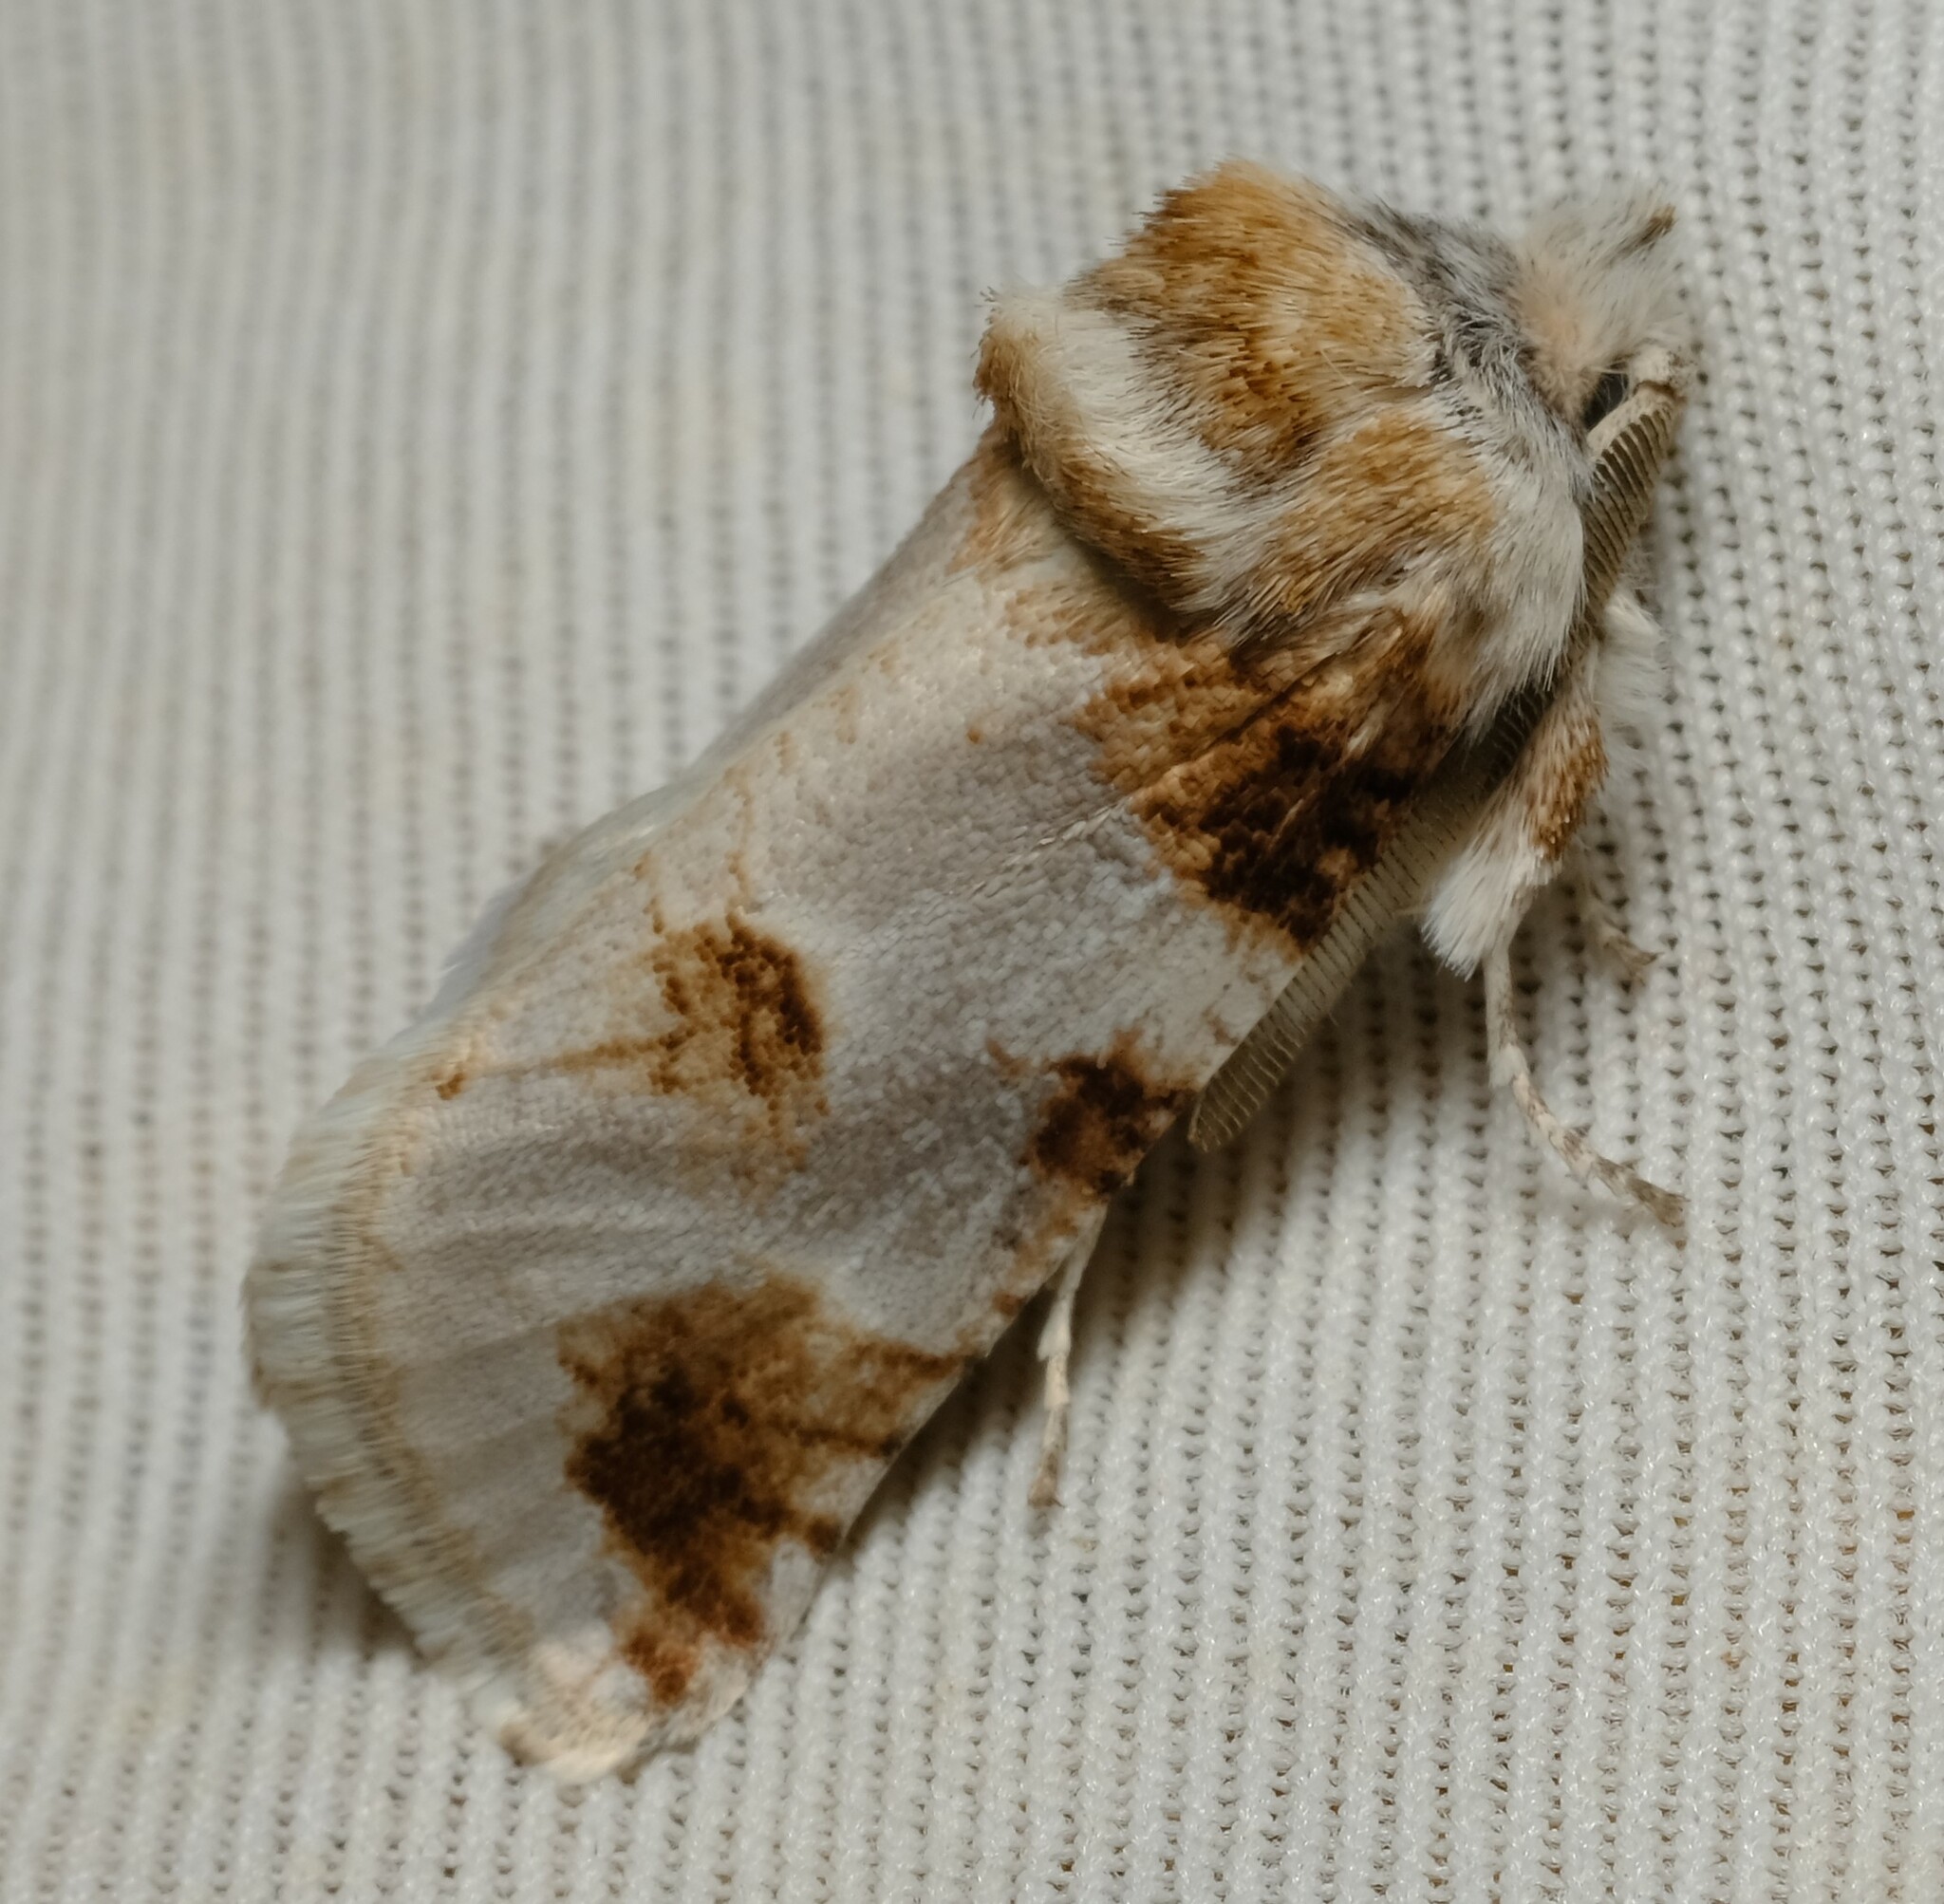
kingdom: Animalia
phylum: Arthropoda
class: Insecta
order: Lepidoptera
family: Cossidae
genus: Culama
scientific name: Culama dasythrix
